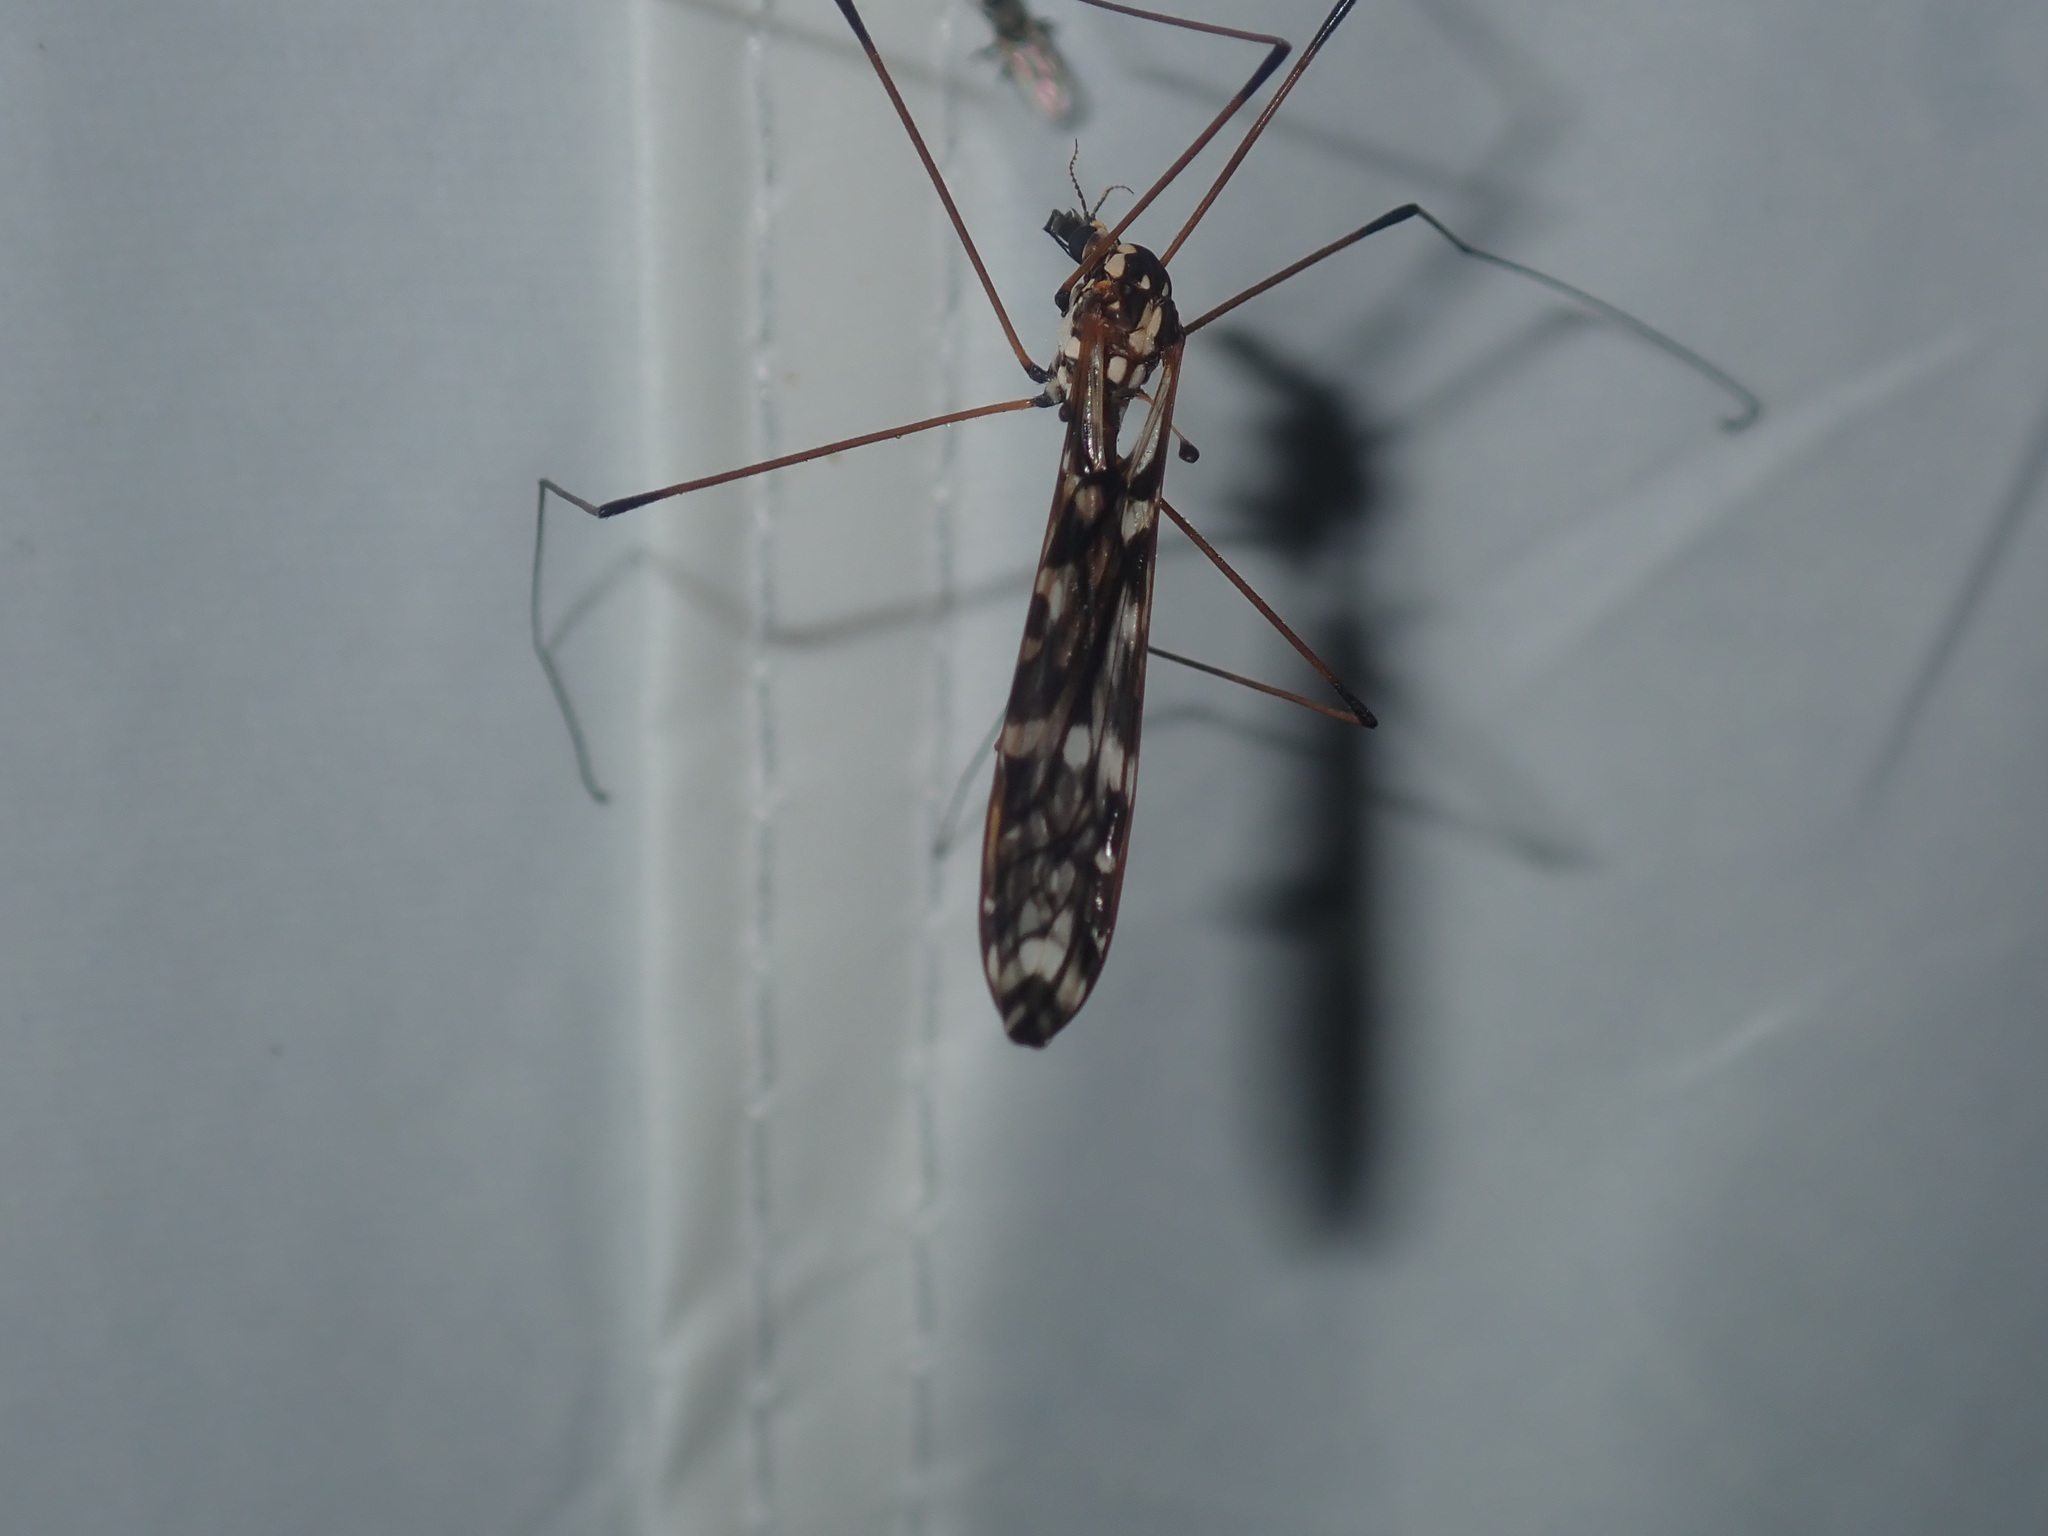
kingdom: Animalia
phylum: Arthropoda
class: Insecta
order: Diptera
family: Tipulidae
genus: Ischnotoma
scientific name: Ischnotoma eburnea
